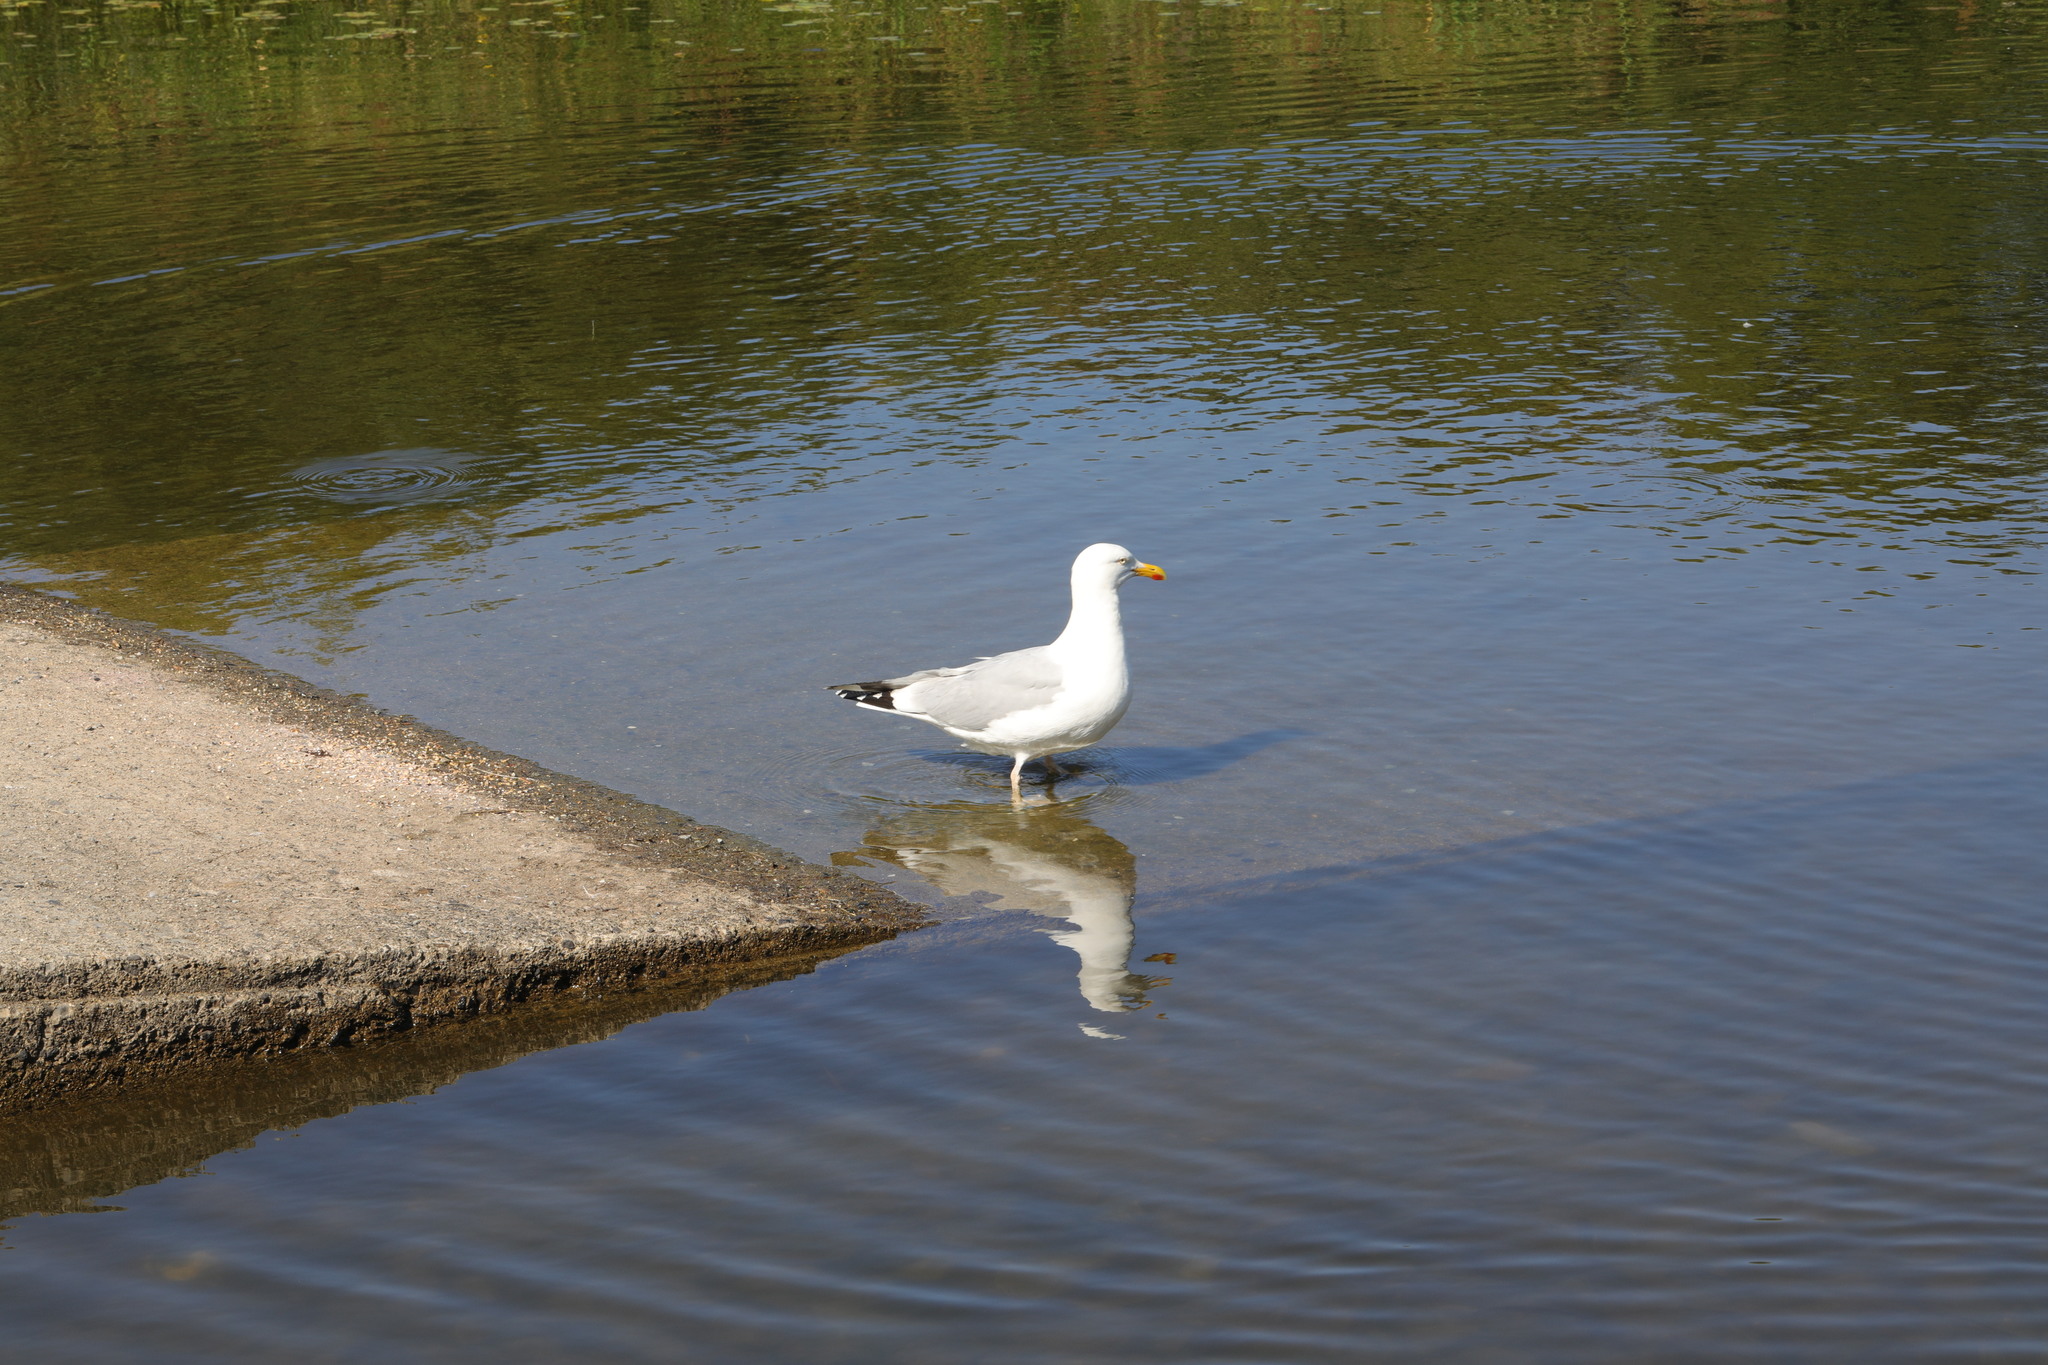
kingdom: Animalia
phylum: Chordata
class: Aves
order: Charadriiformes
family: Laridae
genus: Larus
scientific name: Larus argentatus
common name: Herring gull
